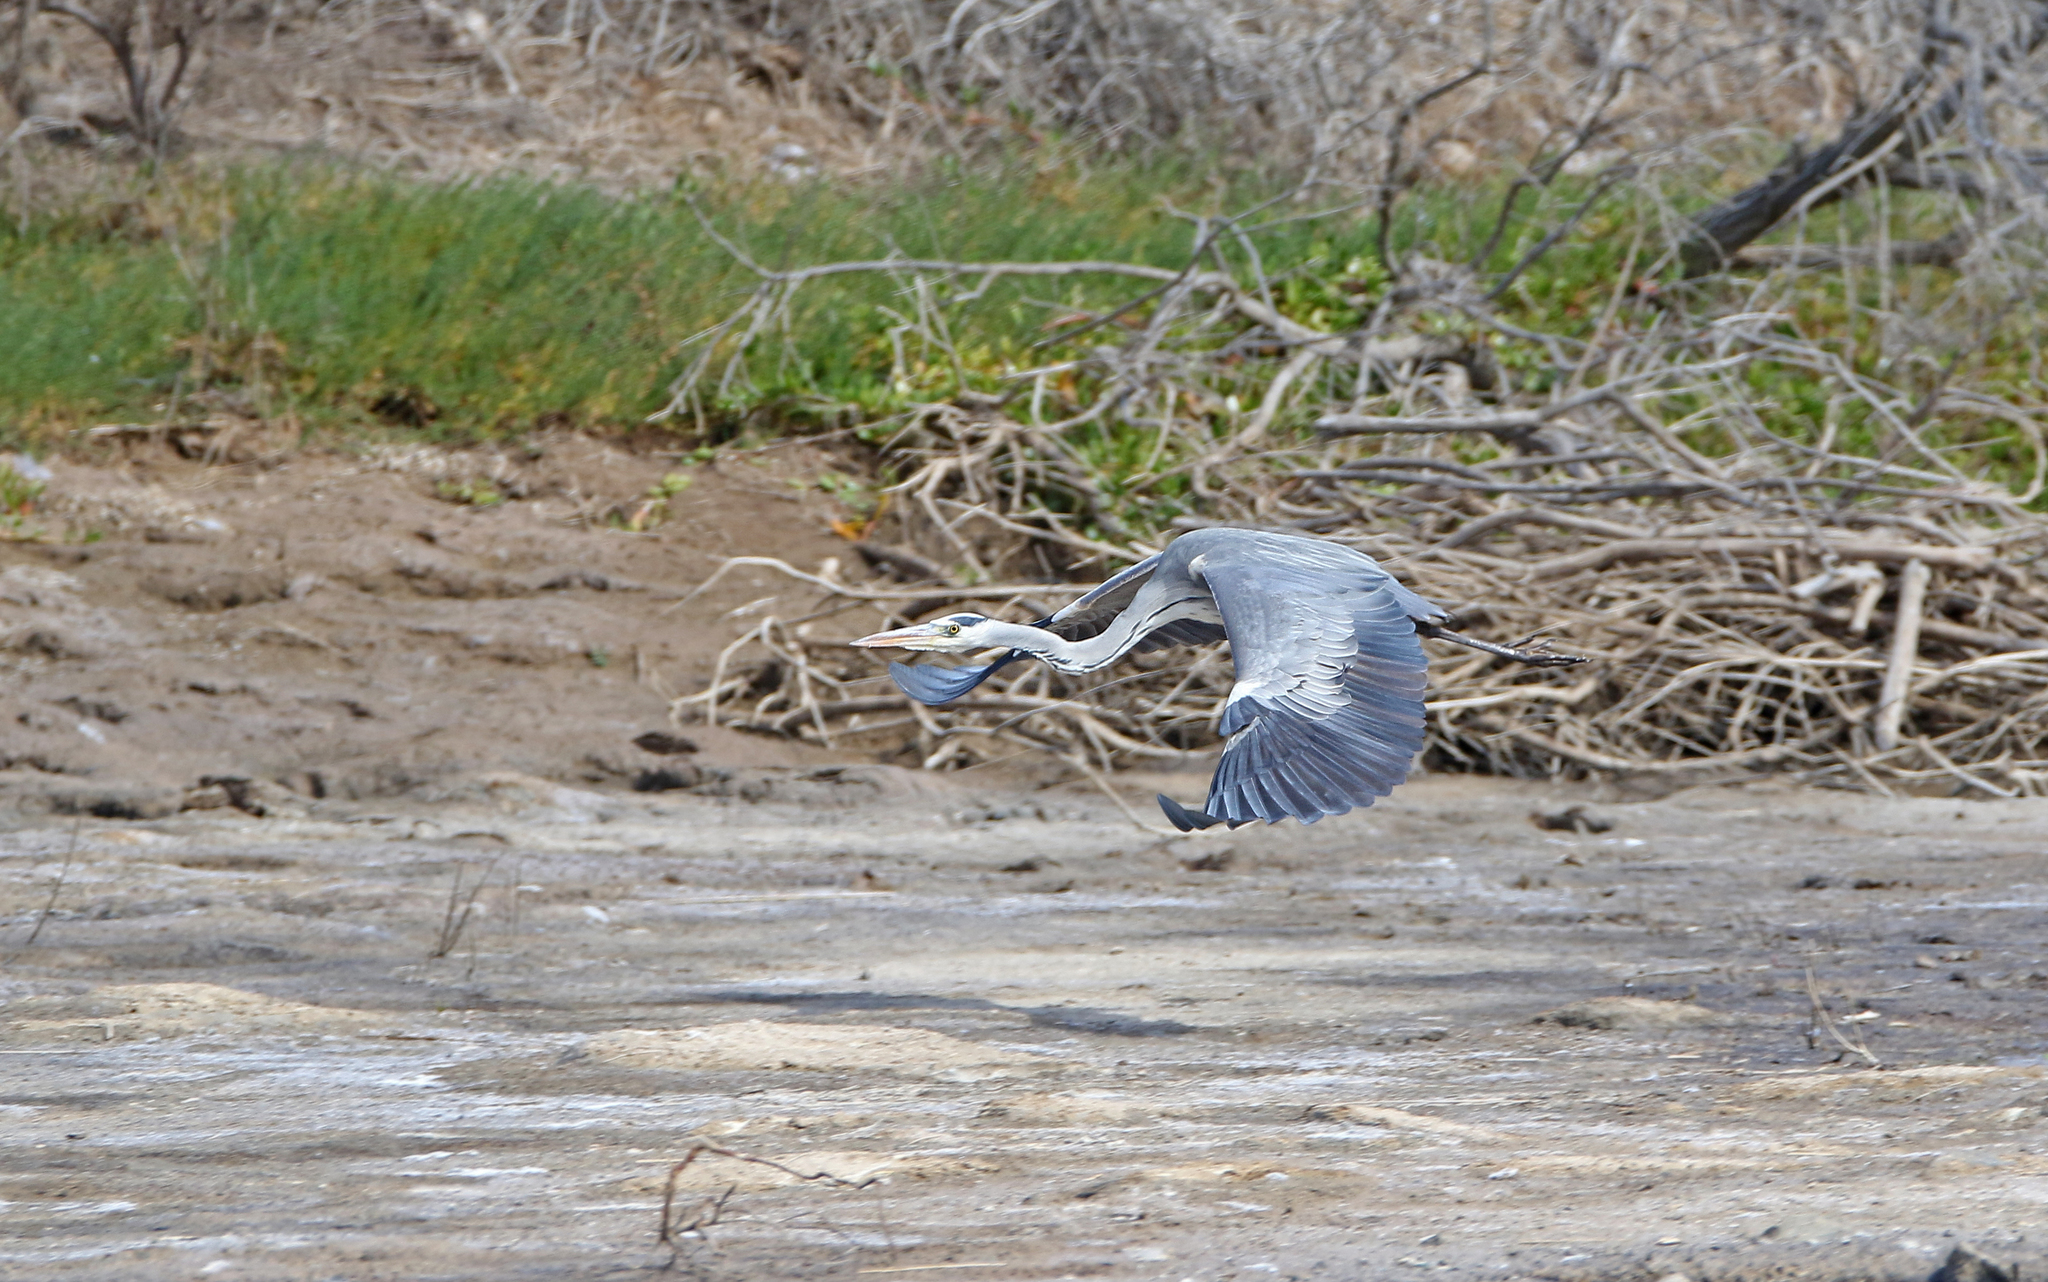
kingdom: Animalia
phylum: Chordata
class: Aves
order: Pelecaniformes
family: Ardeidae
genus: Ardea
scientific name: Ardea cinerea
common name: Grey heron
